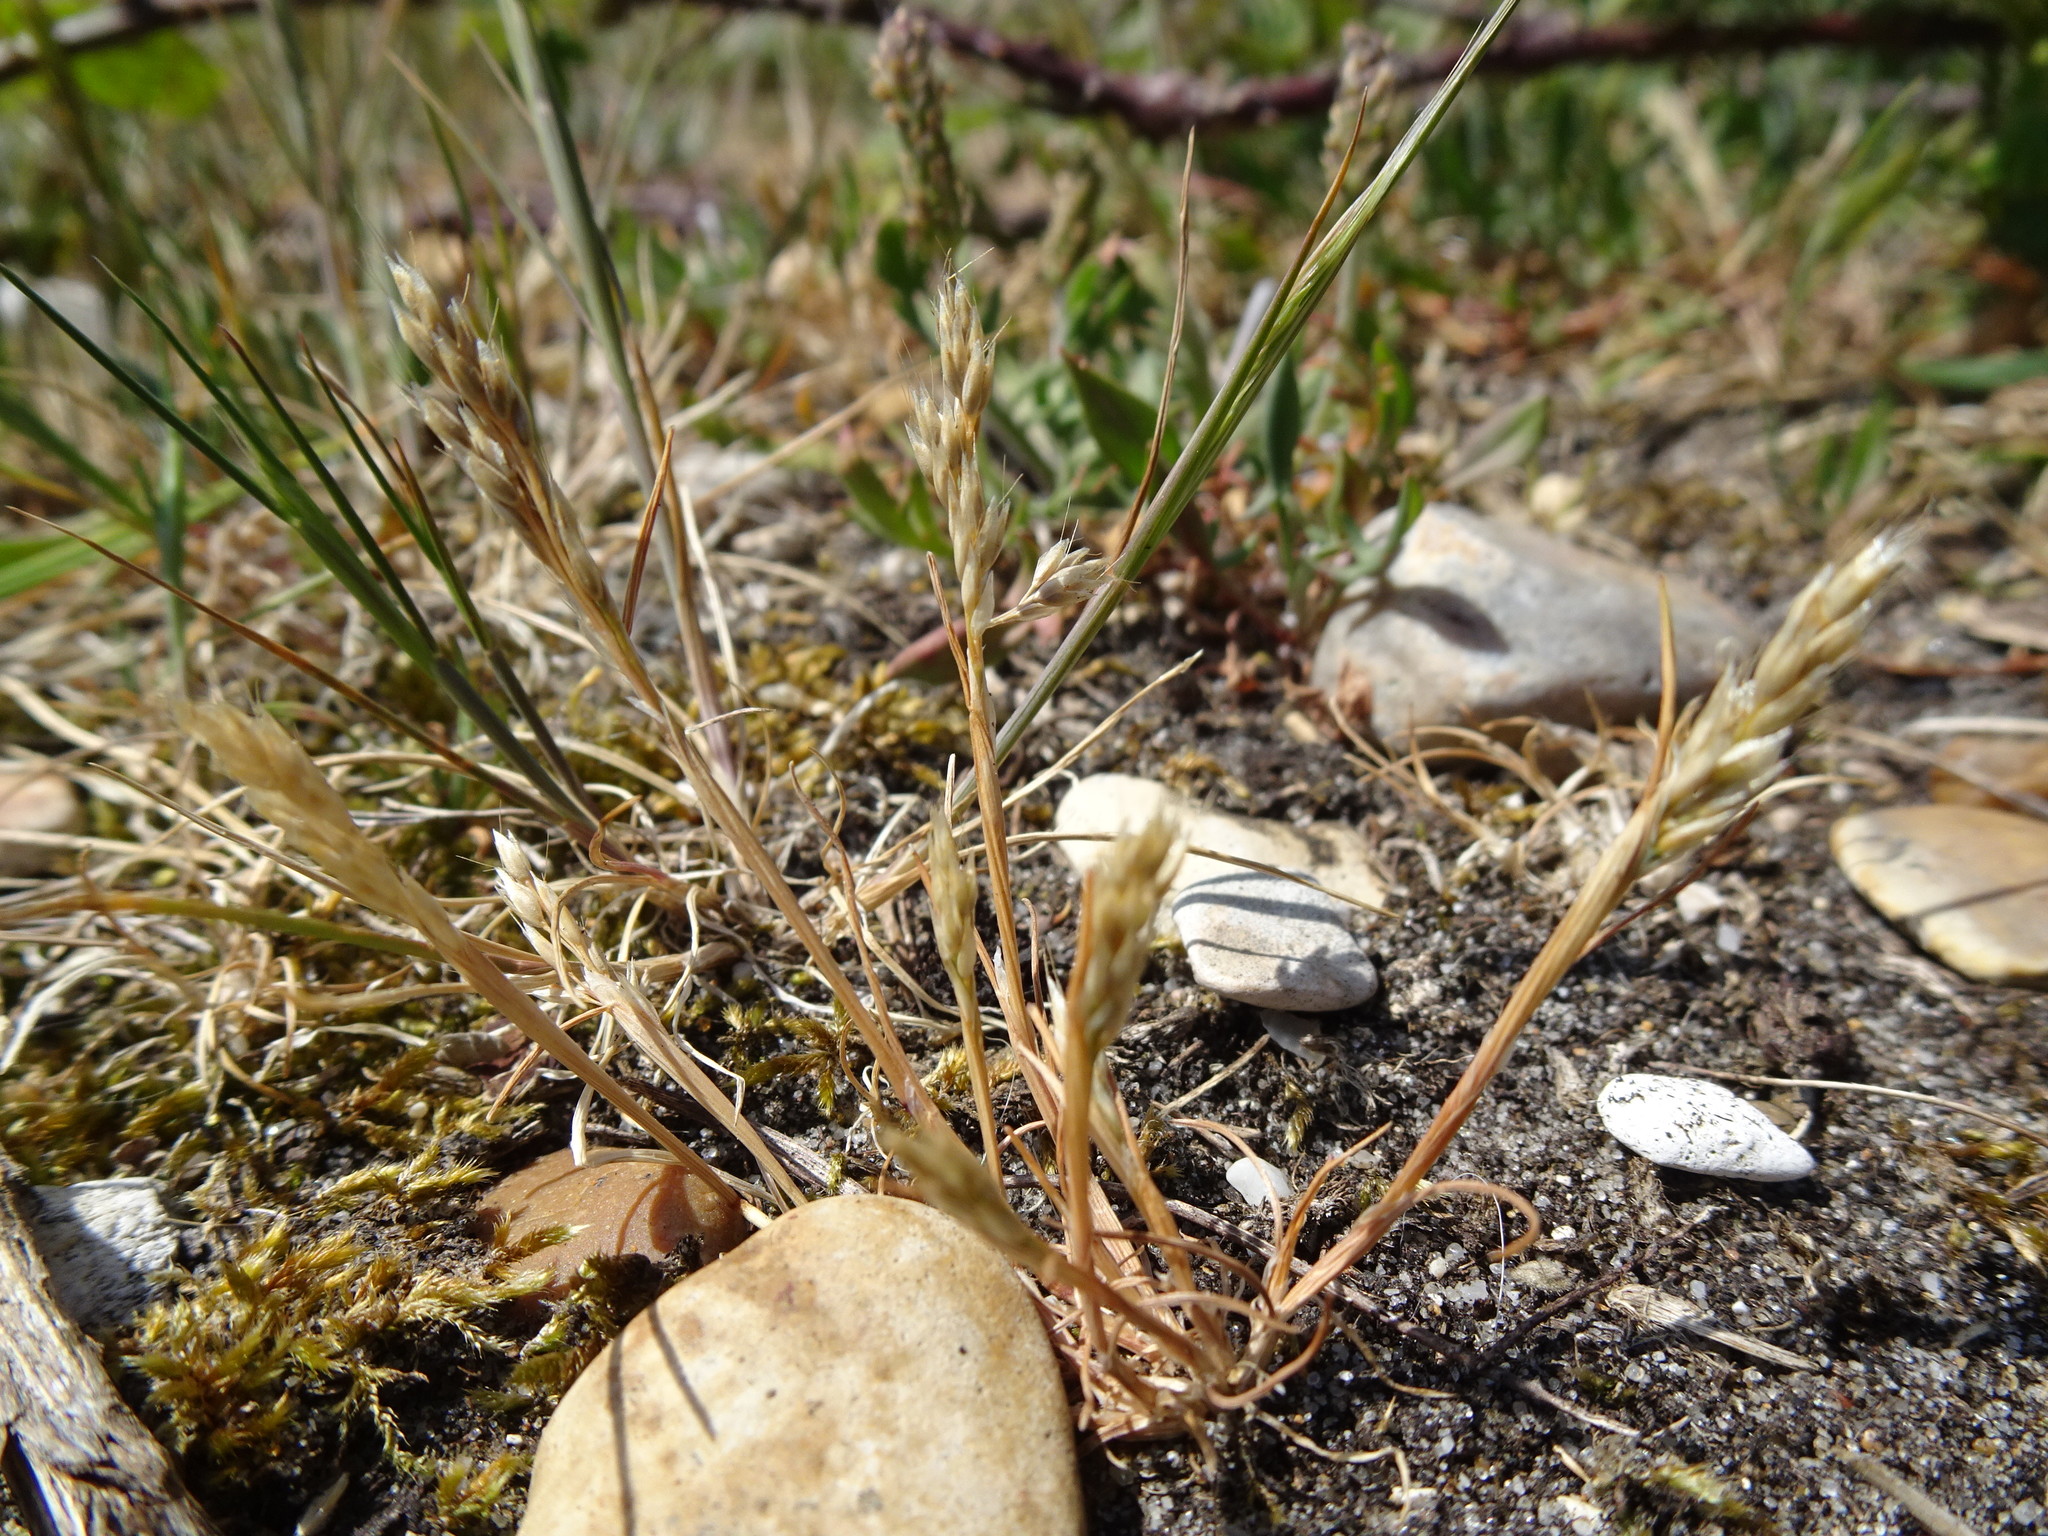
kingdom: Plantae
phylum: Tracheophyta
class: Liliopsida
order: Poales
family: Poaceae
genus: Aira
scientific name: Aira praecox
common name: Early hair-grass
